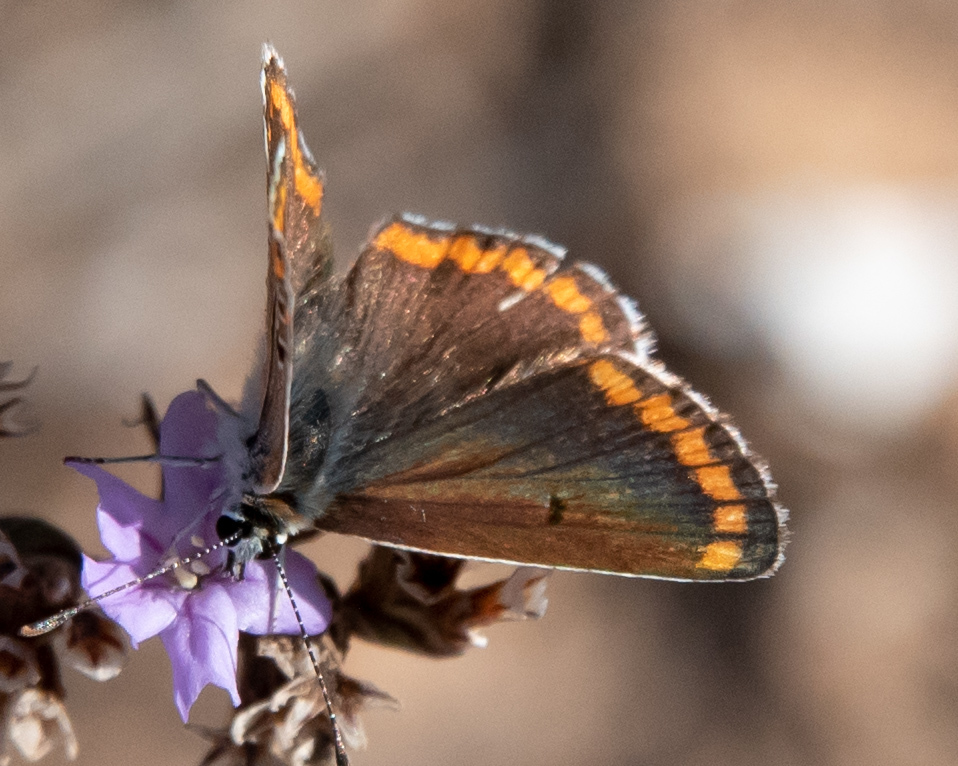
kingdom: Animalia
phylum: Arthropoda
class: Insecta
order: Lepidoptera
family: Lycaenidae
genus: Aricia
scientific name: Aricia cramera
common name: Eschscholtz´s brown  argus
